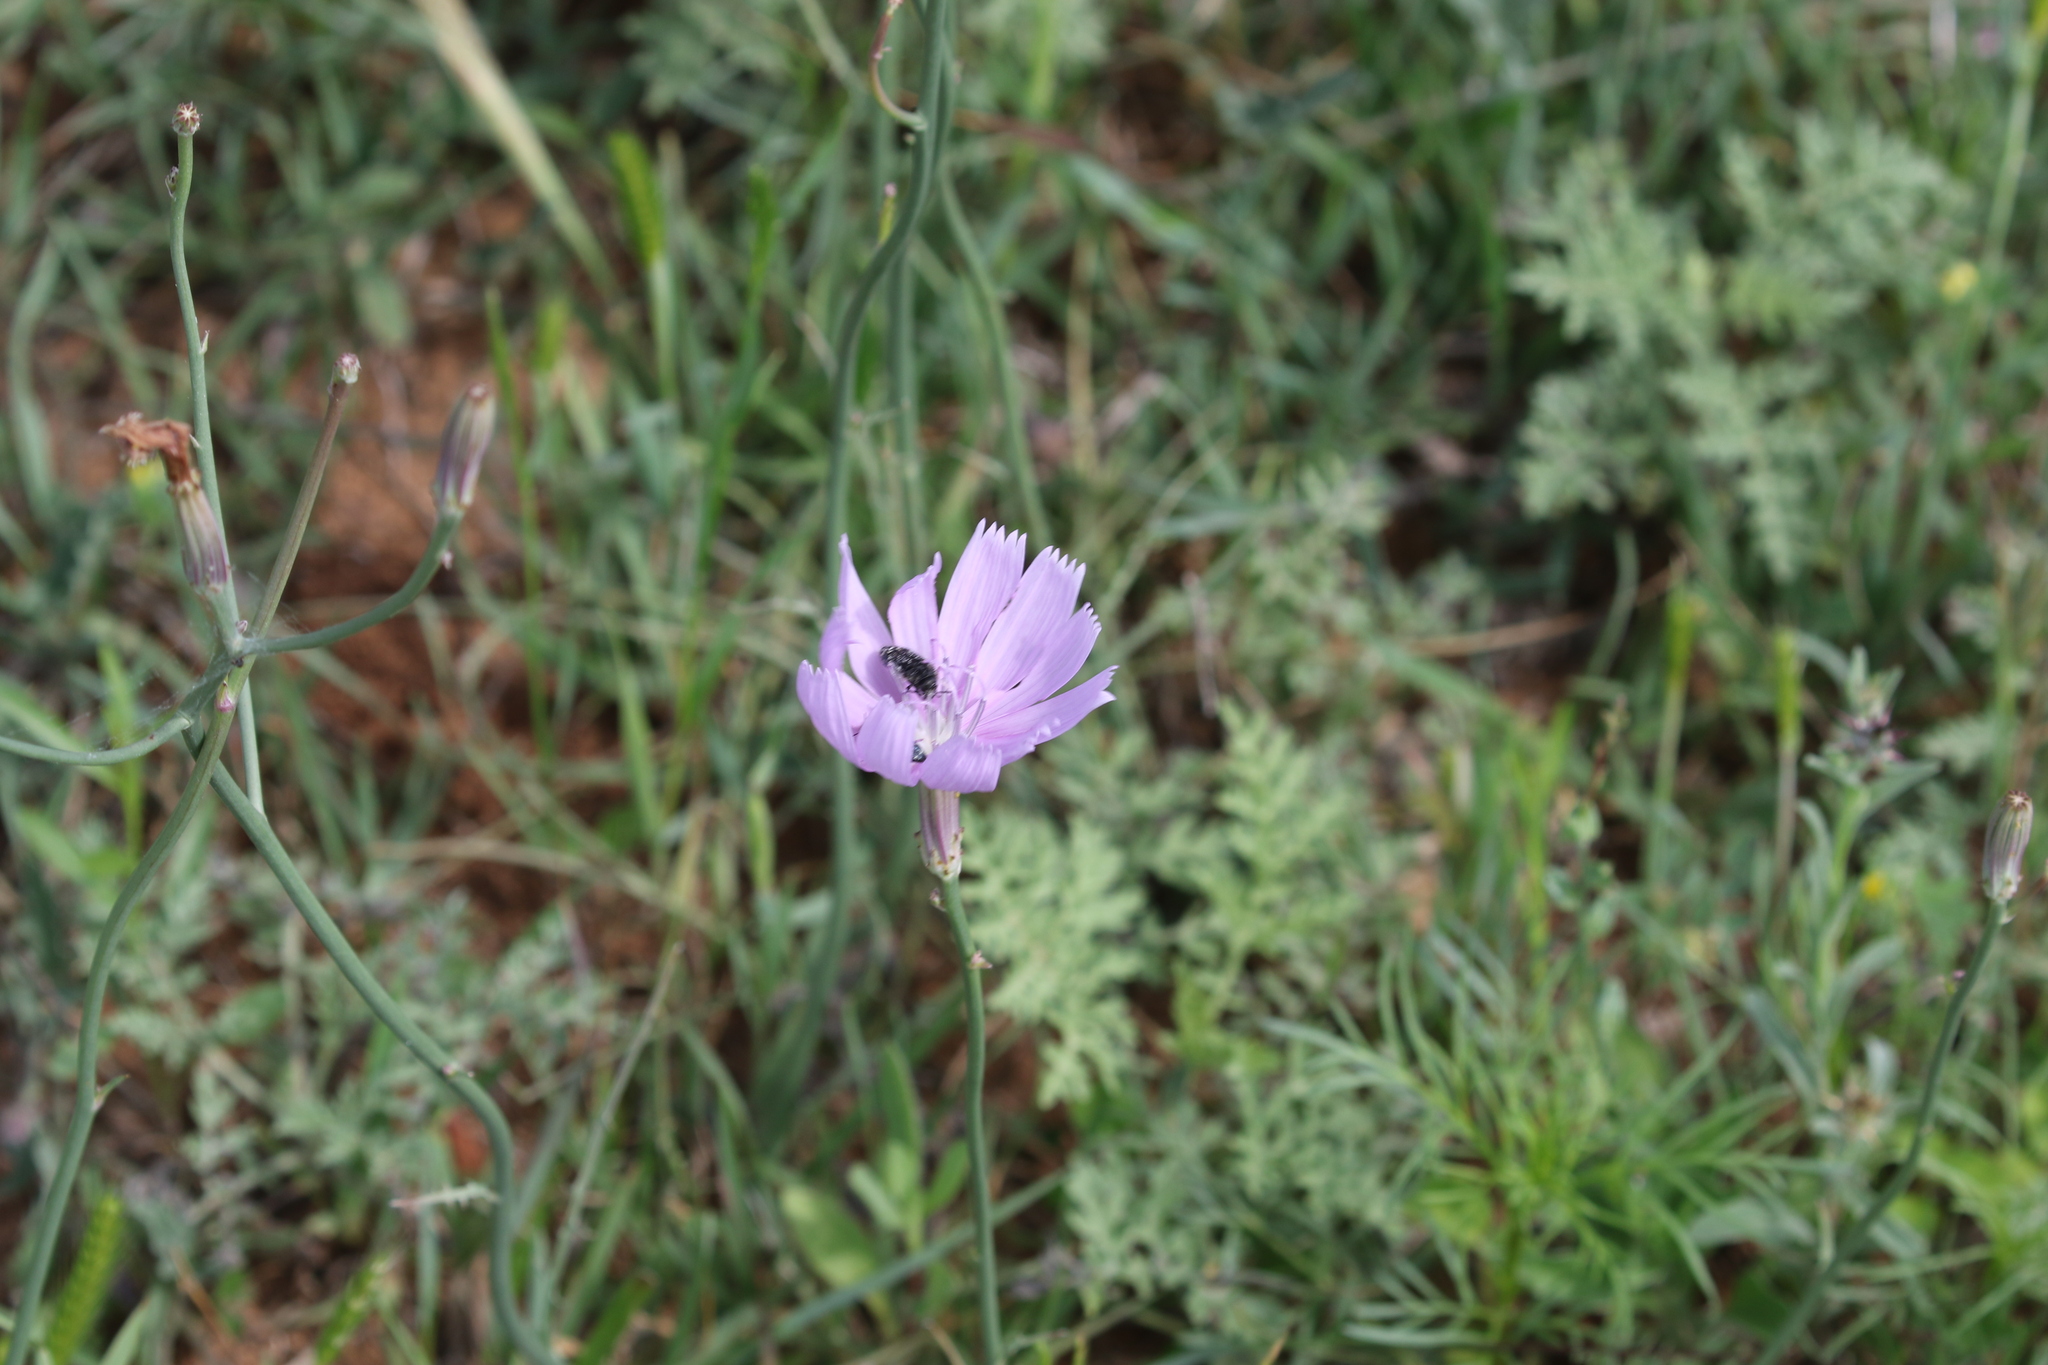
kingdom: Plantae
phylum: Tracheophyta
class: Magnoliopsida
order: Asterales
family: Asteraceae
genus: Lygodesmia
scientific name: Lygodesmia texana
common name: Texas skeleton-plant
